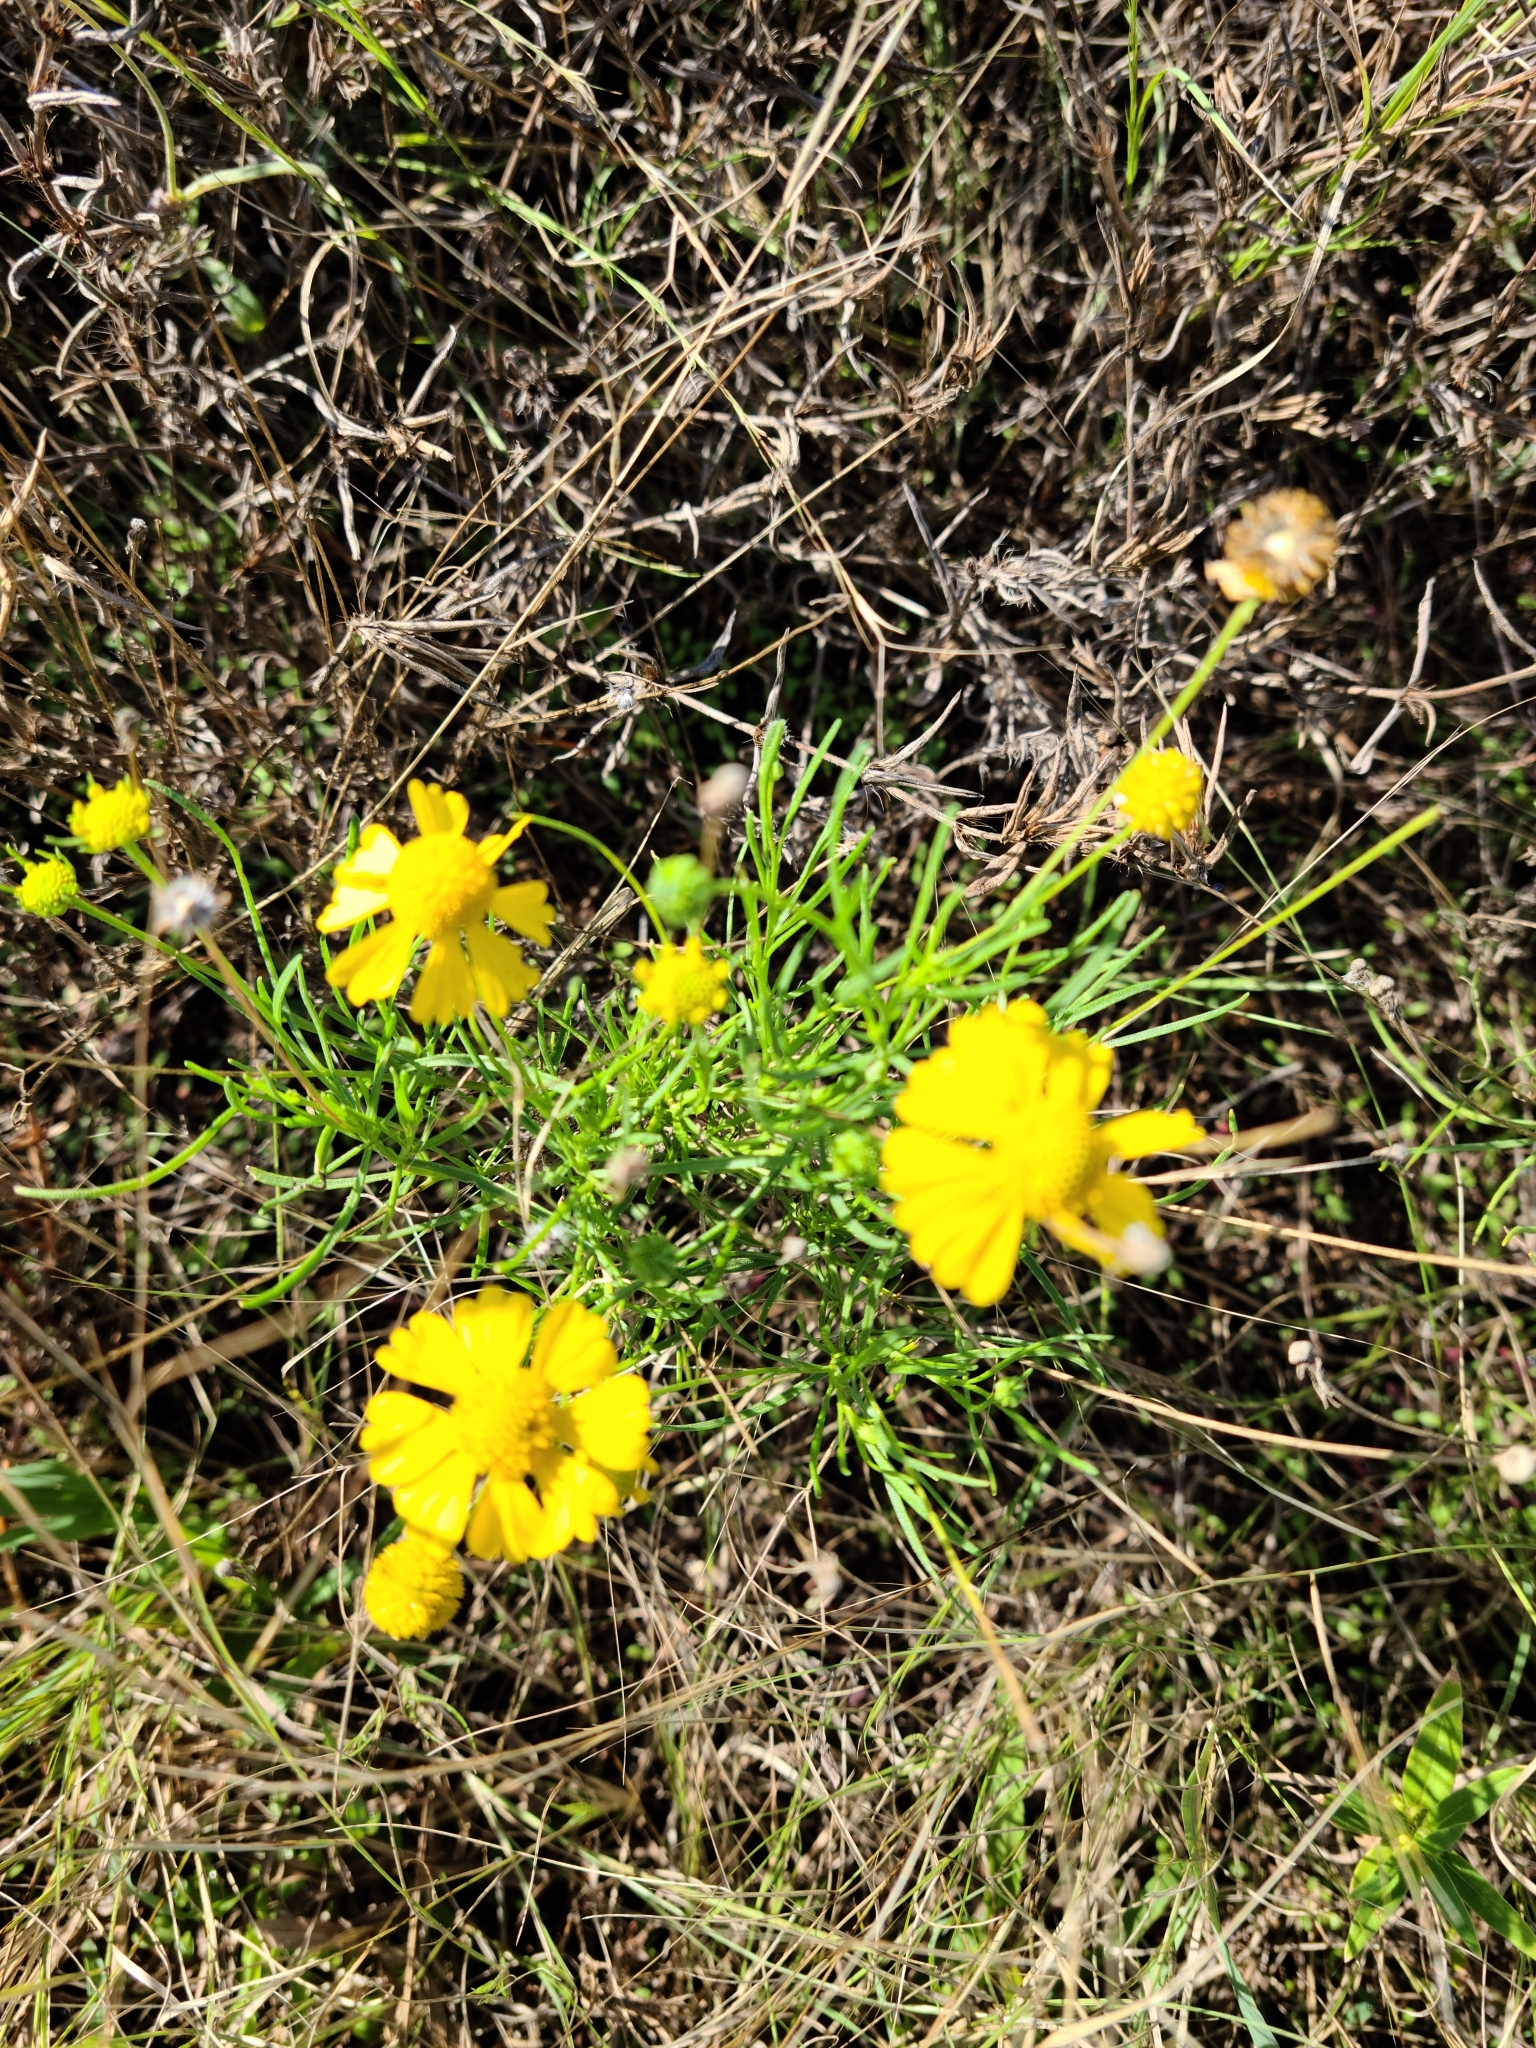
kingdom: Plantae
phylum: Tracheophyta
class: Magnoliopsida
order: Asterales
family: Asteraceae
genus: Helenium
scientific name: Helenium amarum
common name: Bitter sneezeweed
